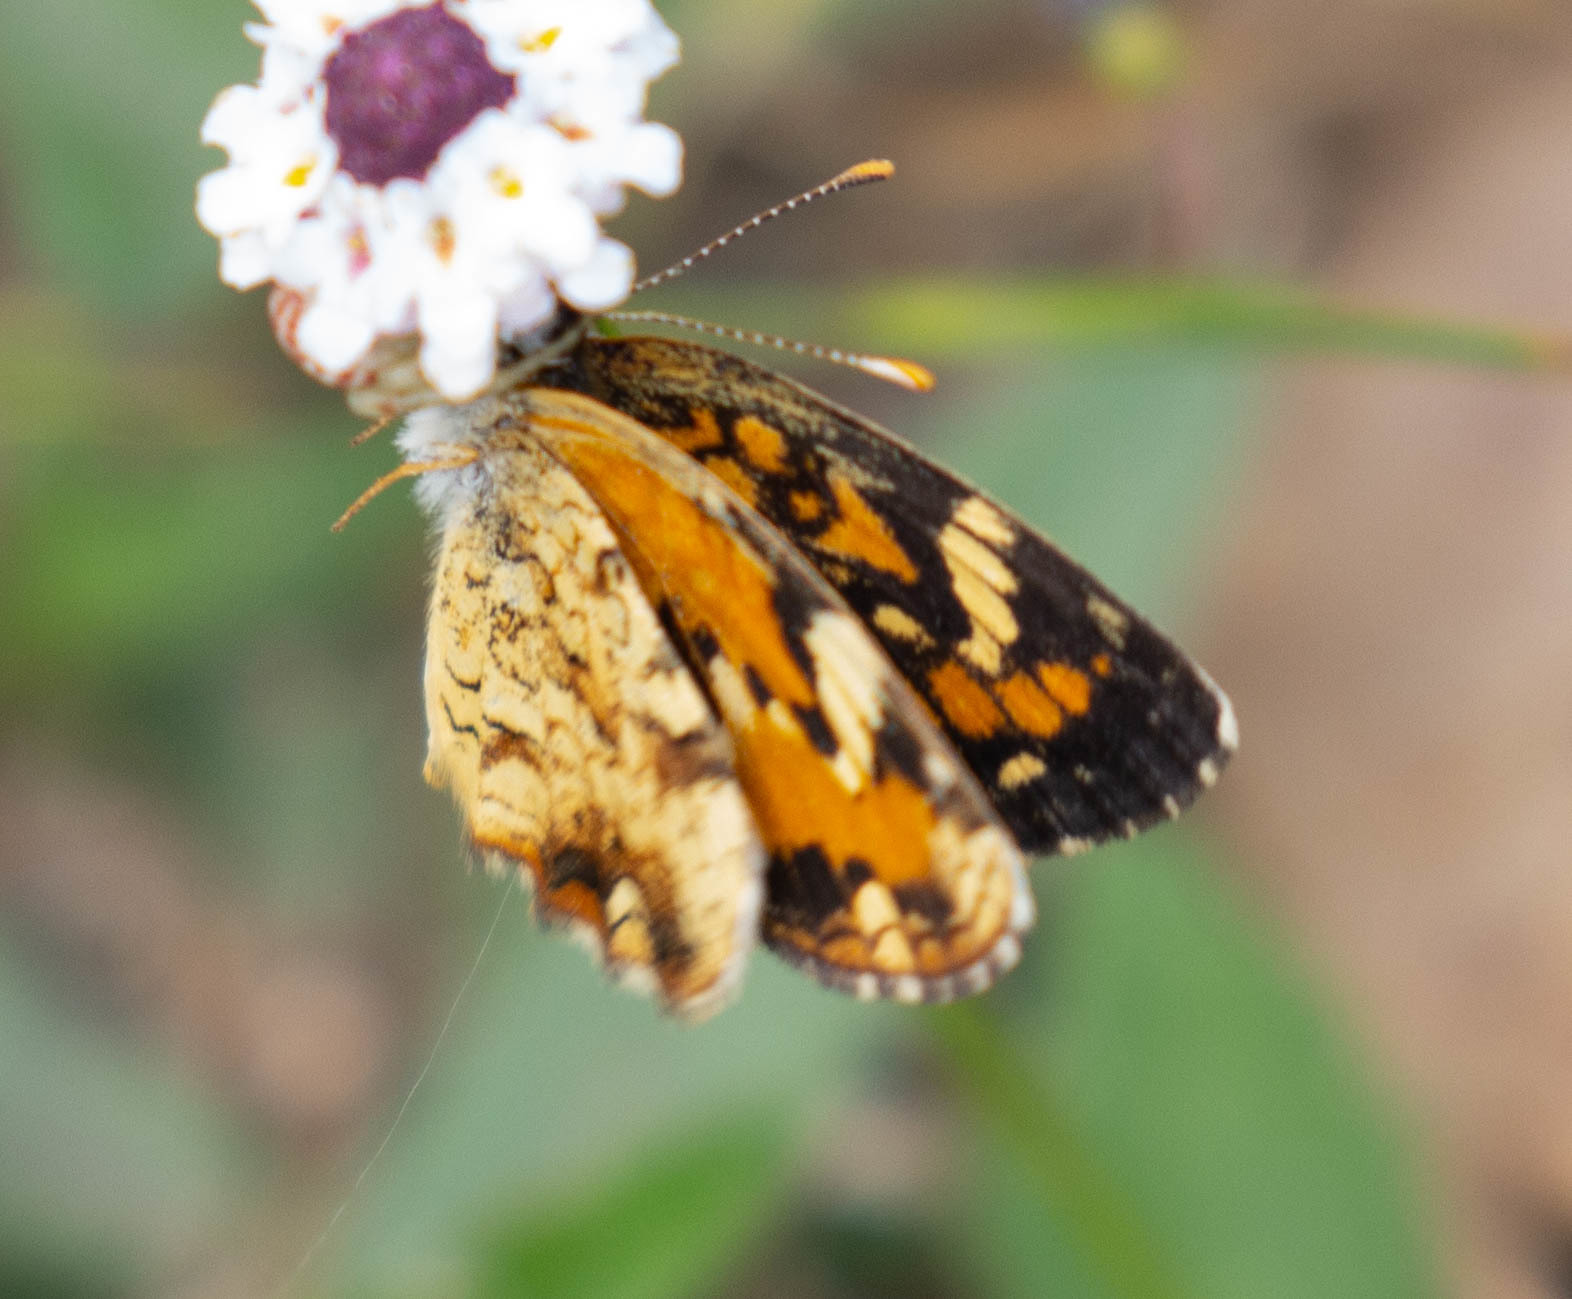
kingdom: Animalia
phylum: Arthropoda
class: Insecta
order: Lepidoptera
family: Nymphalidae
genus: Phyciodes
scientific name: Phyciodes phaon
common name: Phaon crescent
